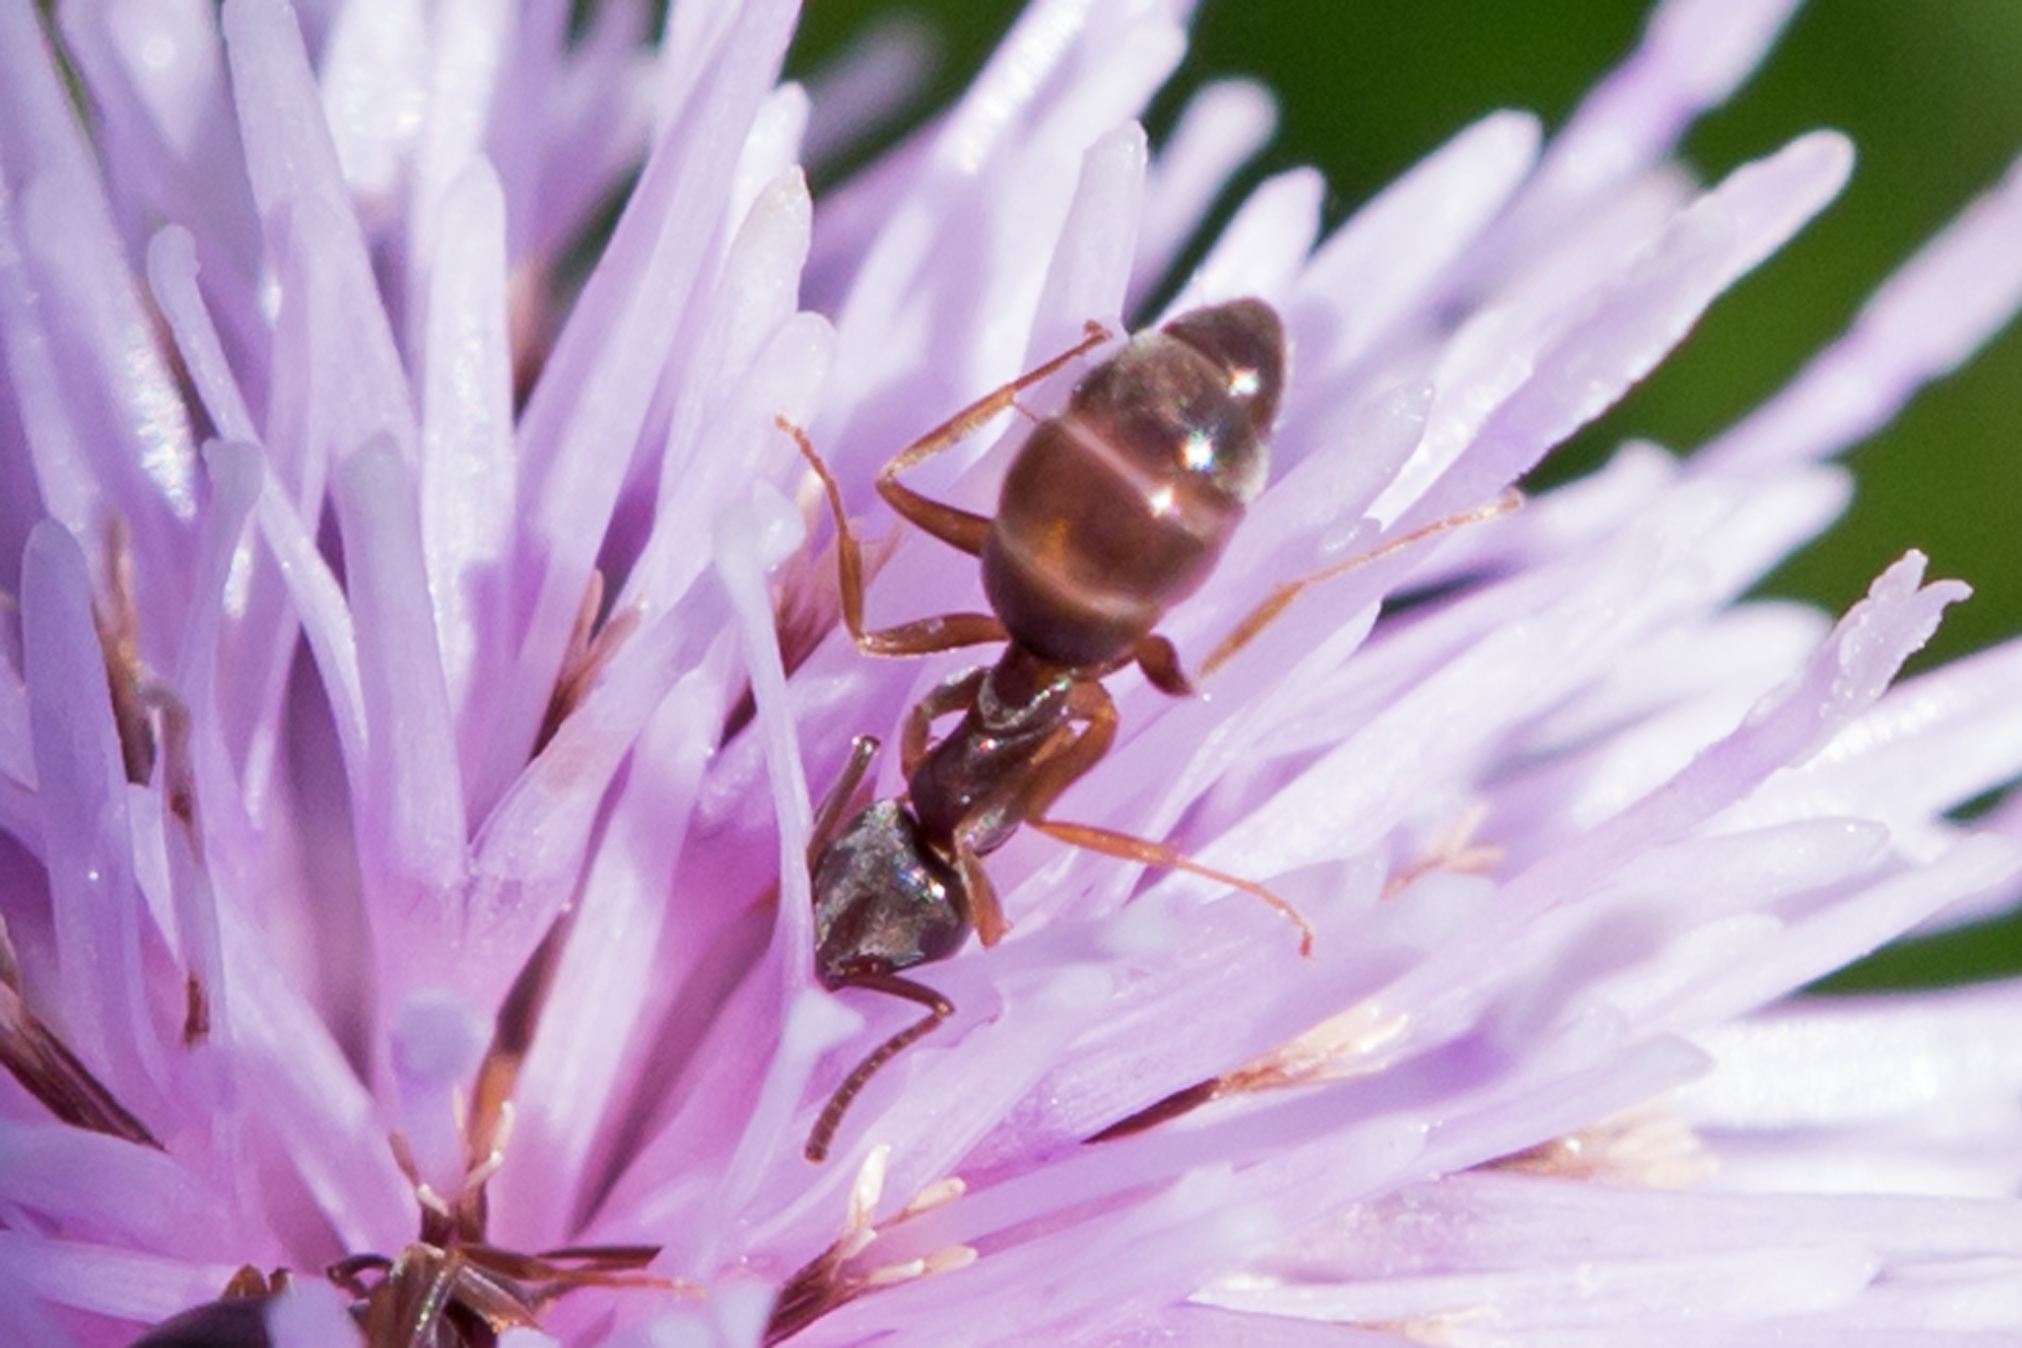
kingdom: Animalia
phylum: Arthropoda
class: Insecta
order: Hymenoptera
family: Formicidae
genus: Tapinoma
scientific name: Tapinoma sessile
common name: Odorous house ant
